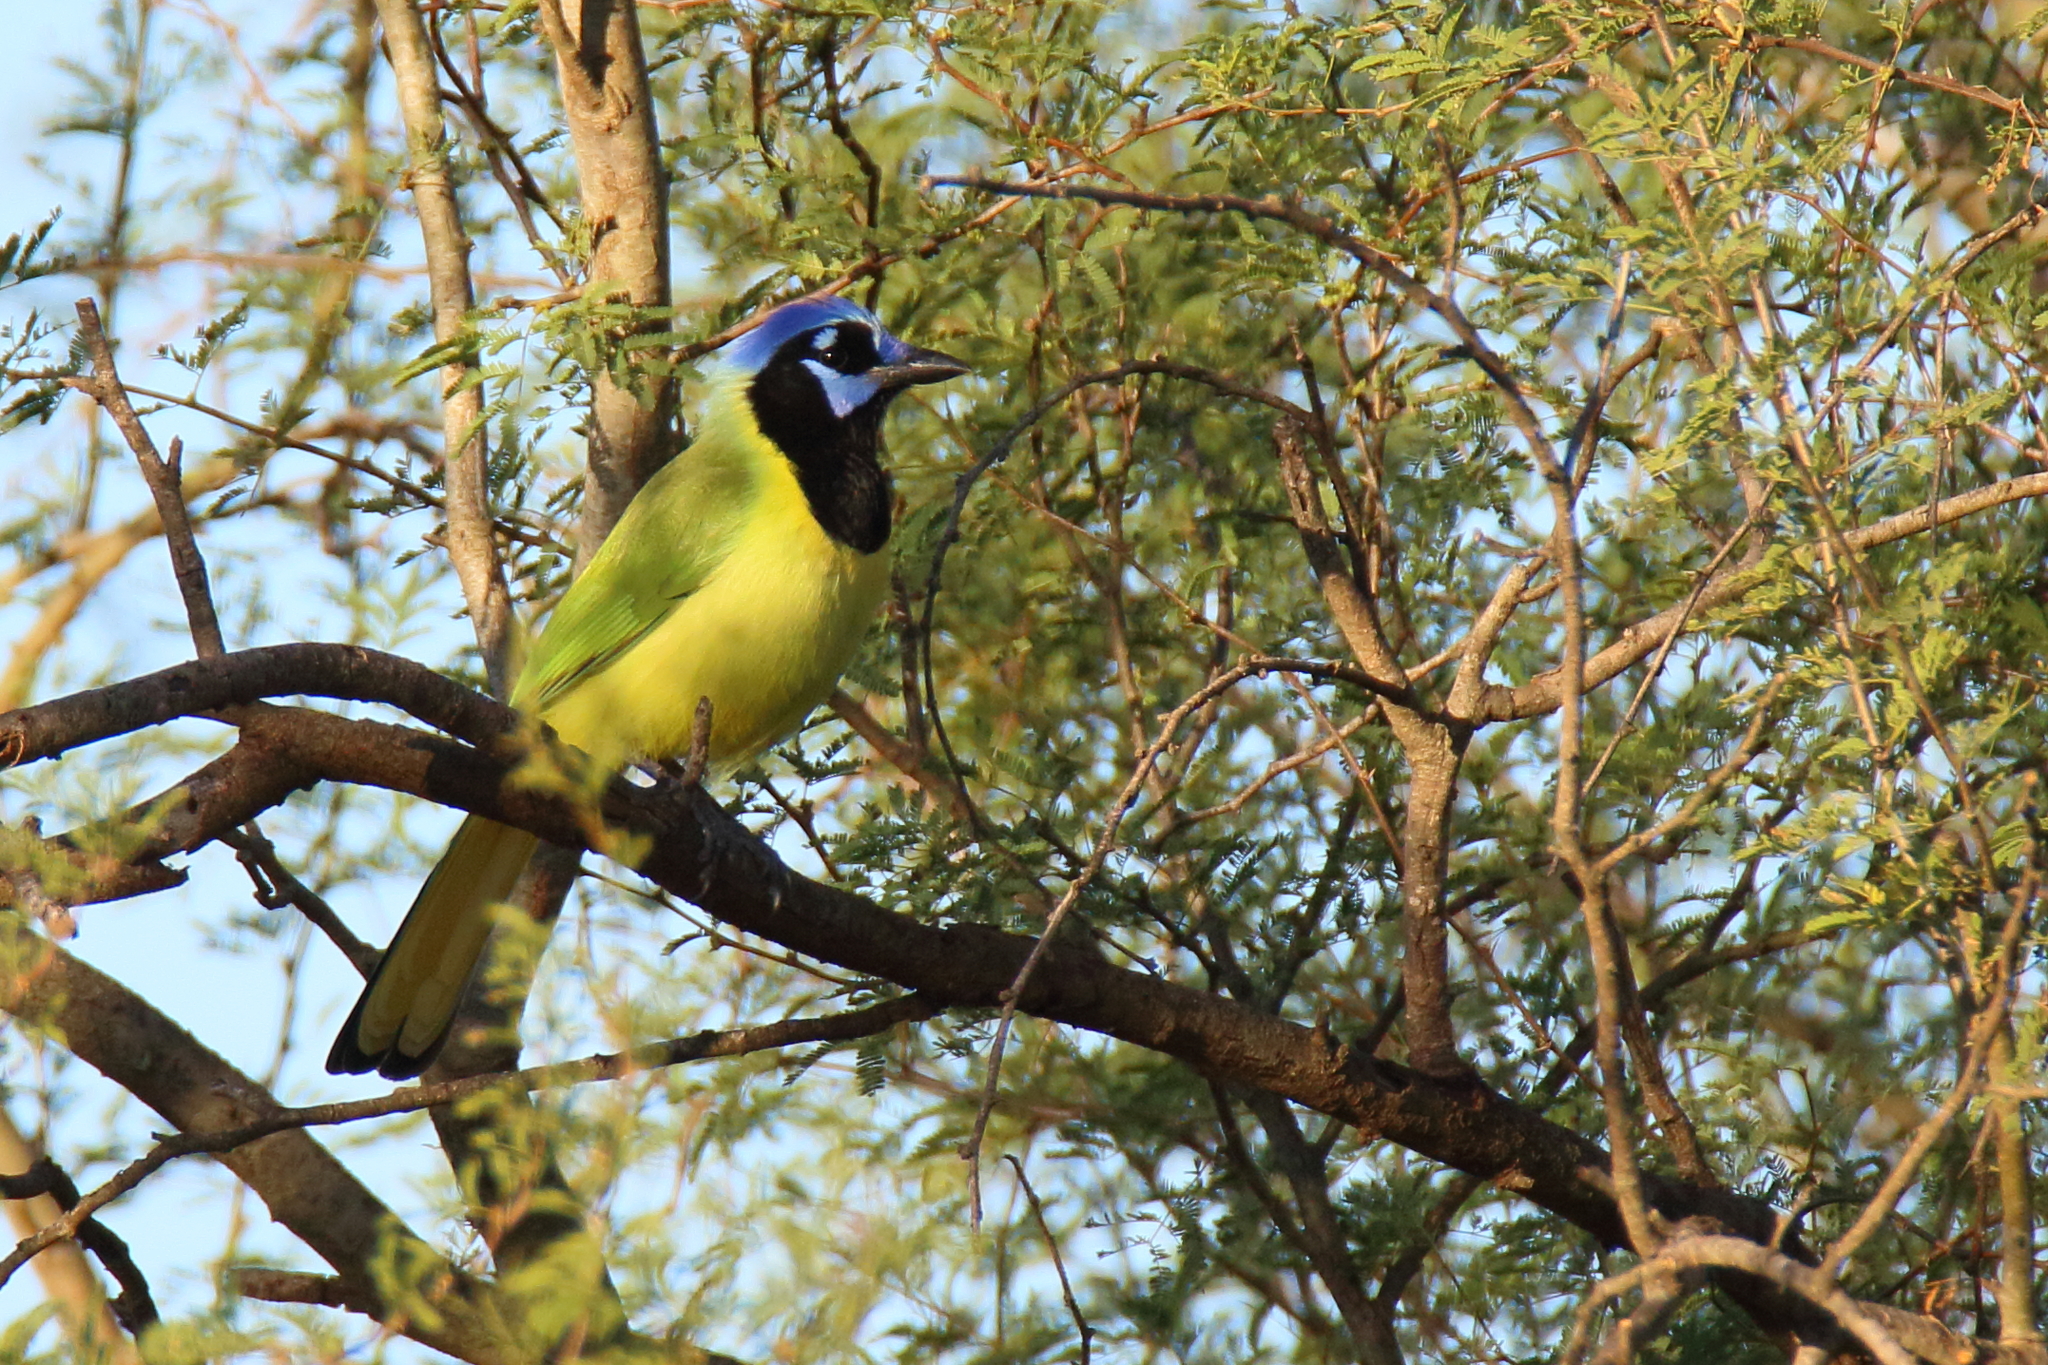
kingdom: Animalia
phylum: Chordata
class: Aves
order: Passeriformes
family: Corvidae
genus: Cyanocorax
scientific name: Cyanocorax yncas
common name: Green jay
